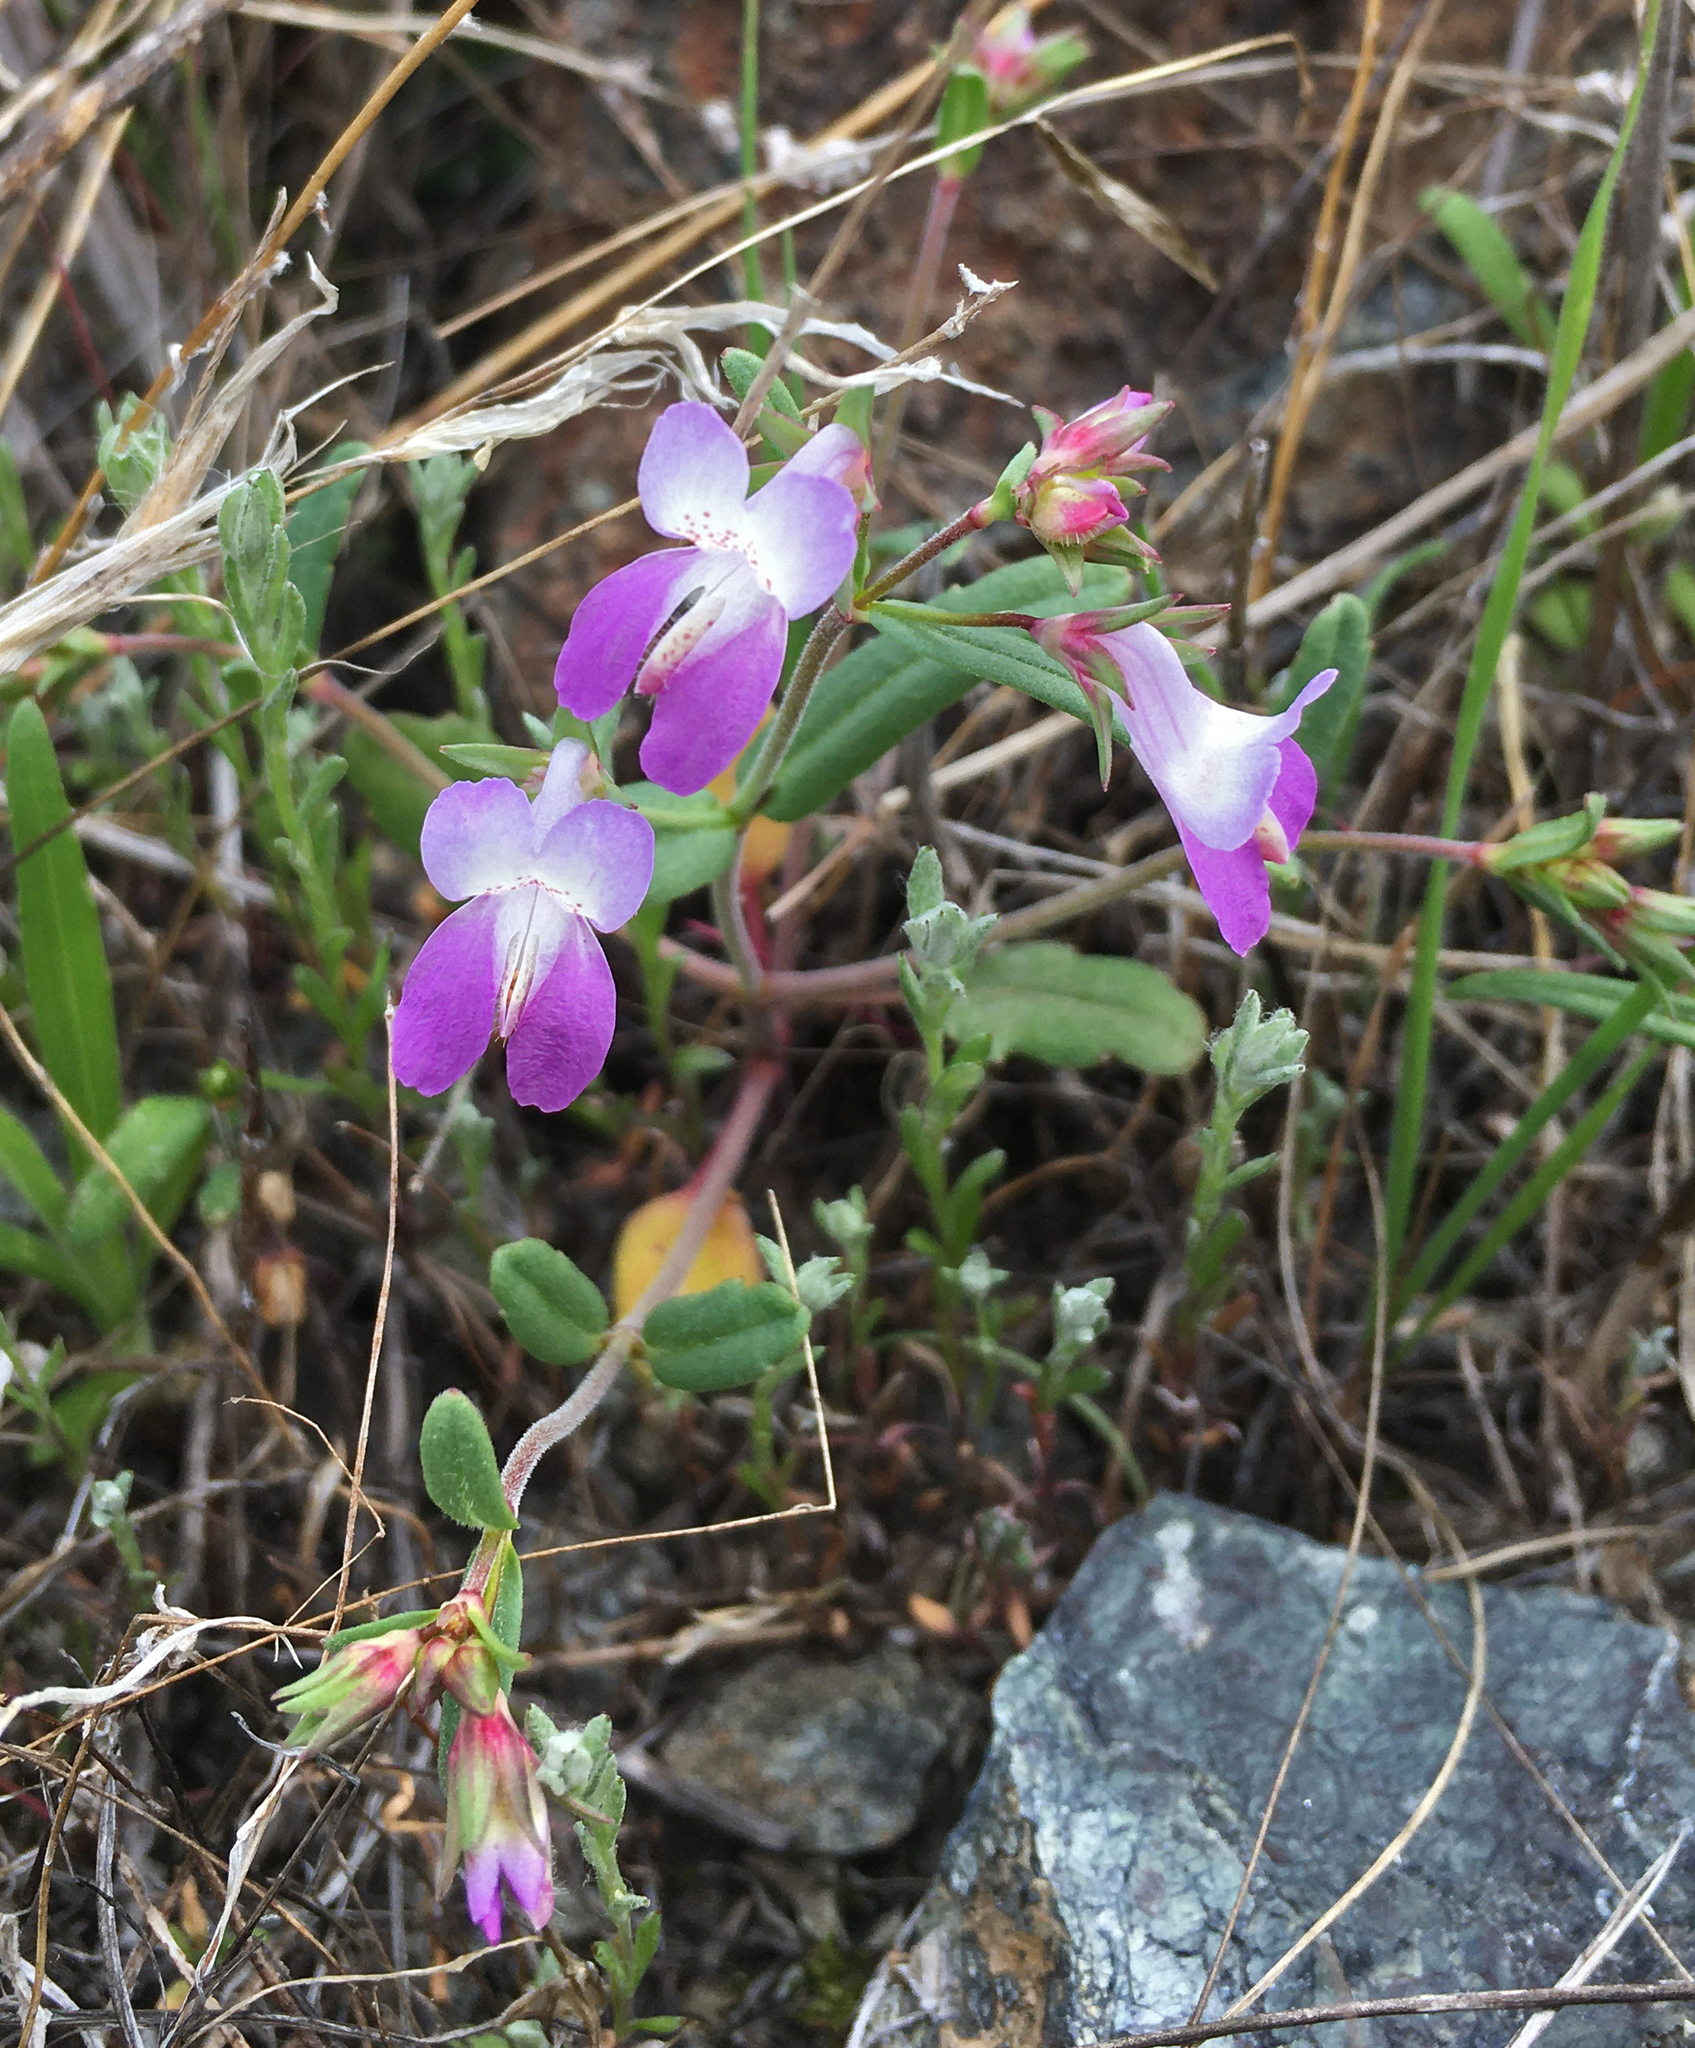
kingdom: Plantae
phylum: Tracheophyta
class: Magnoliopsida
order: Lamiales
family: Plantaginaceae
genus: Collinsia
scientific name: Collinsia sparsiflora
